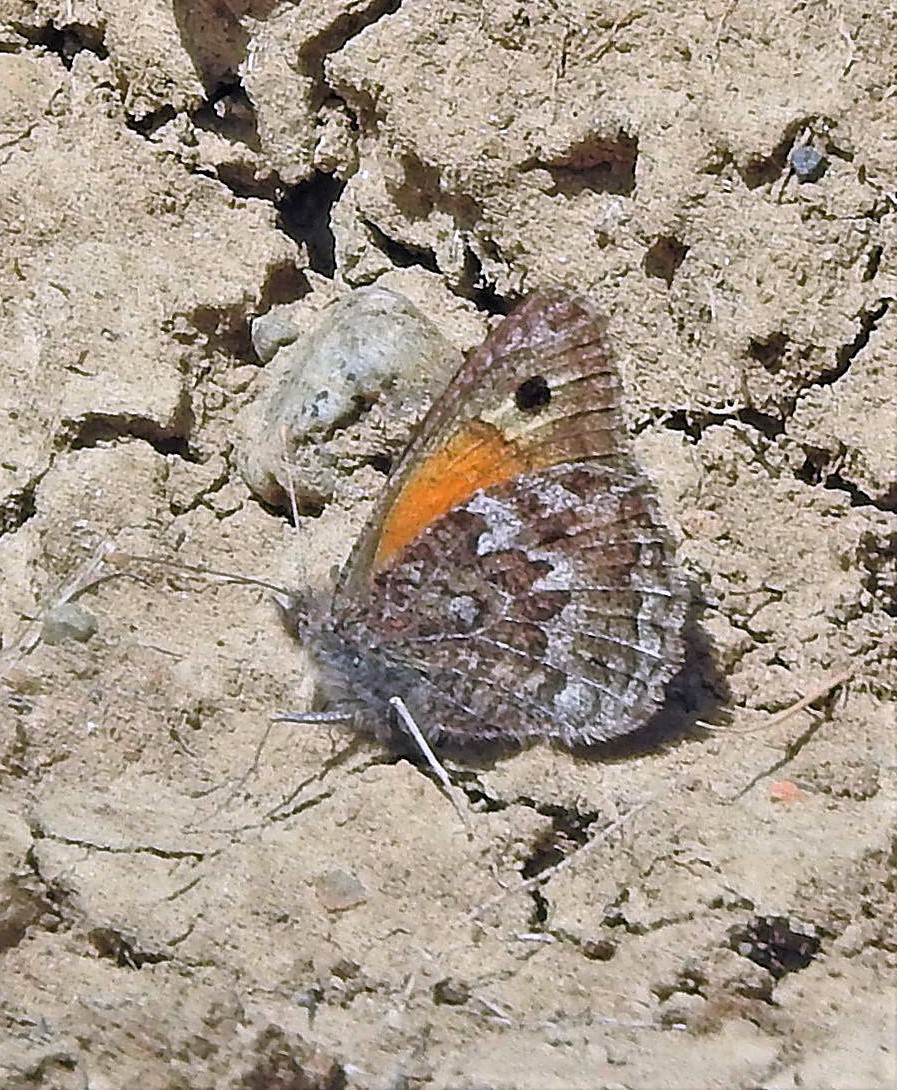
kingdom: Animalia
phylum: Arthropoda
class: Insecta
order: Lepidoptera
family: Nymphalidae
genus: Argyrophorus
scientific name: Argyrophorus
